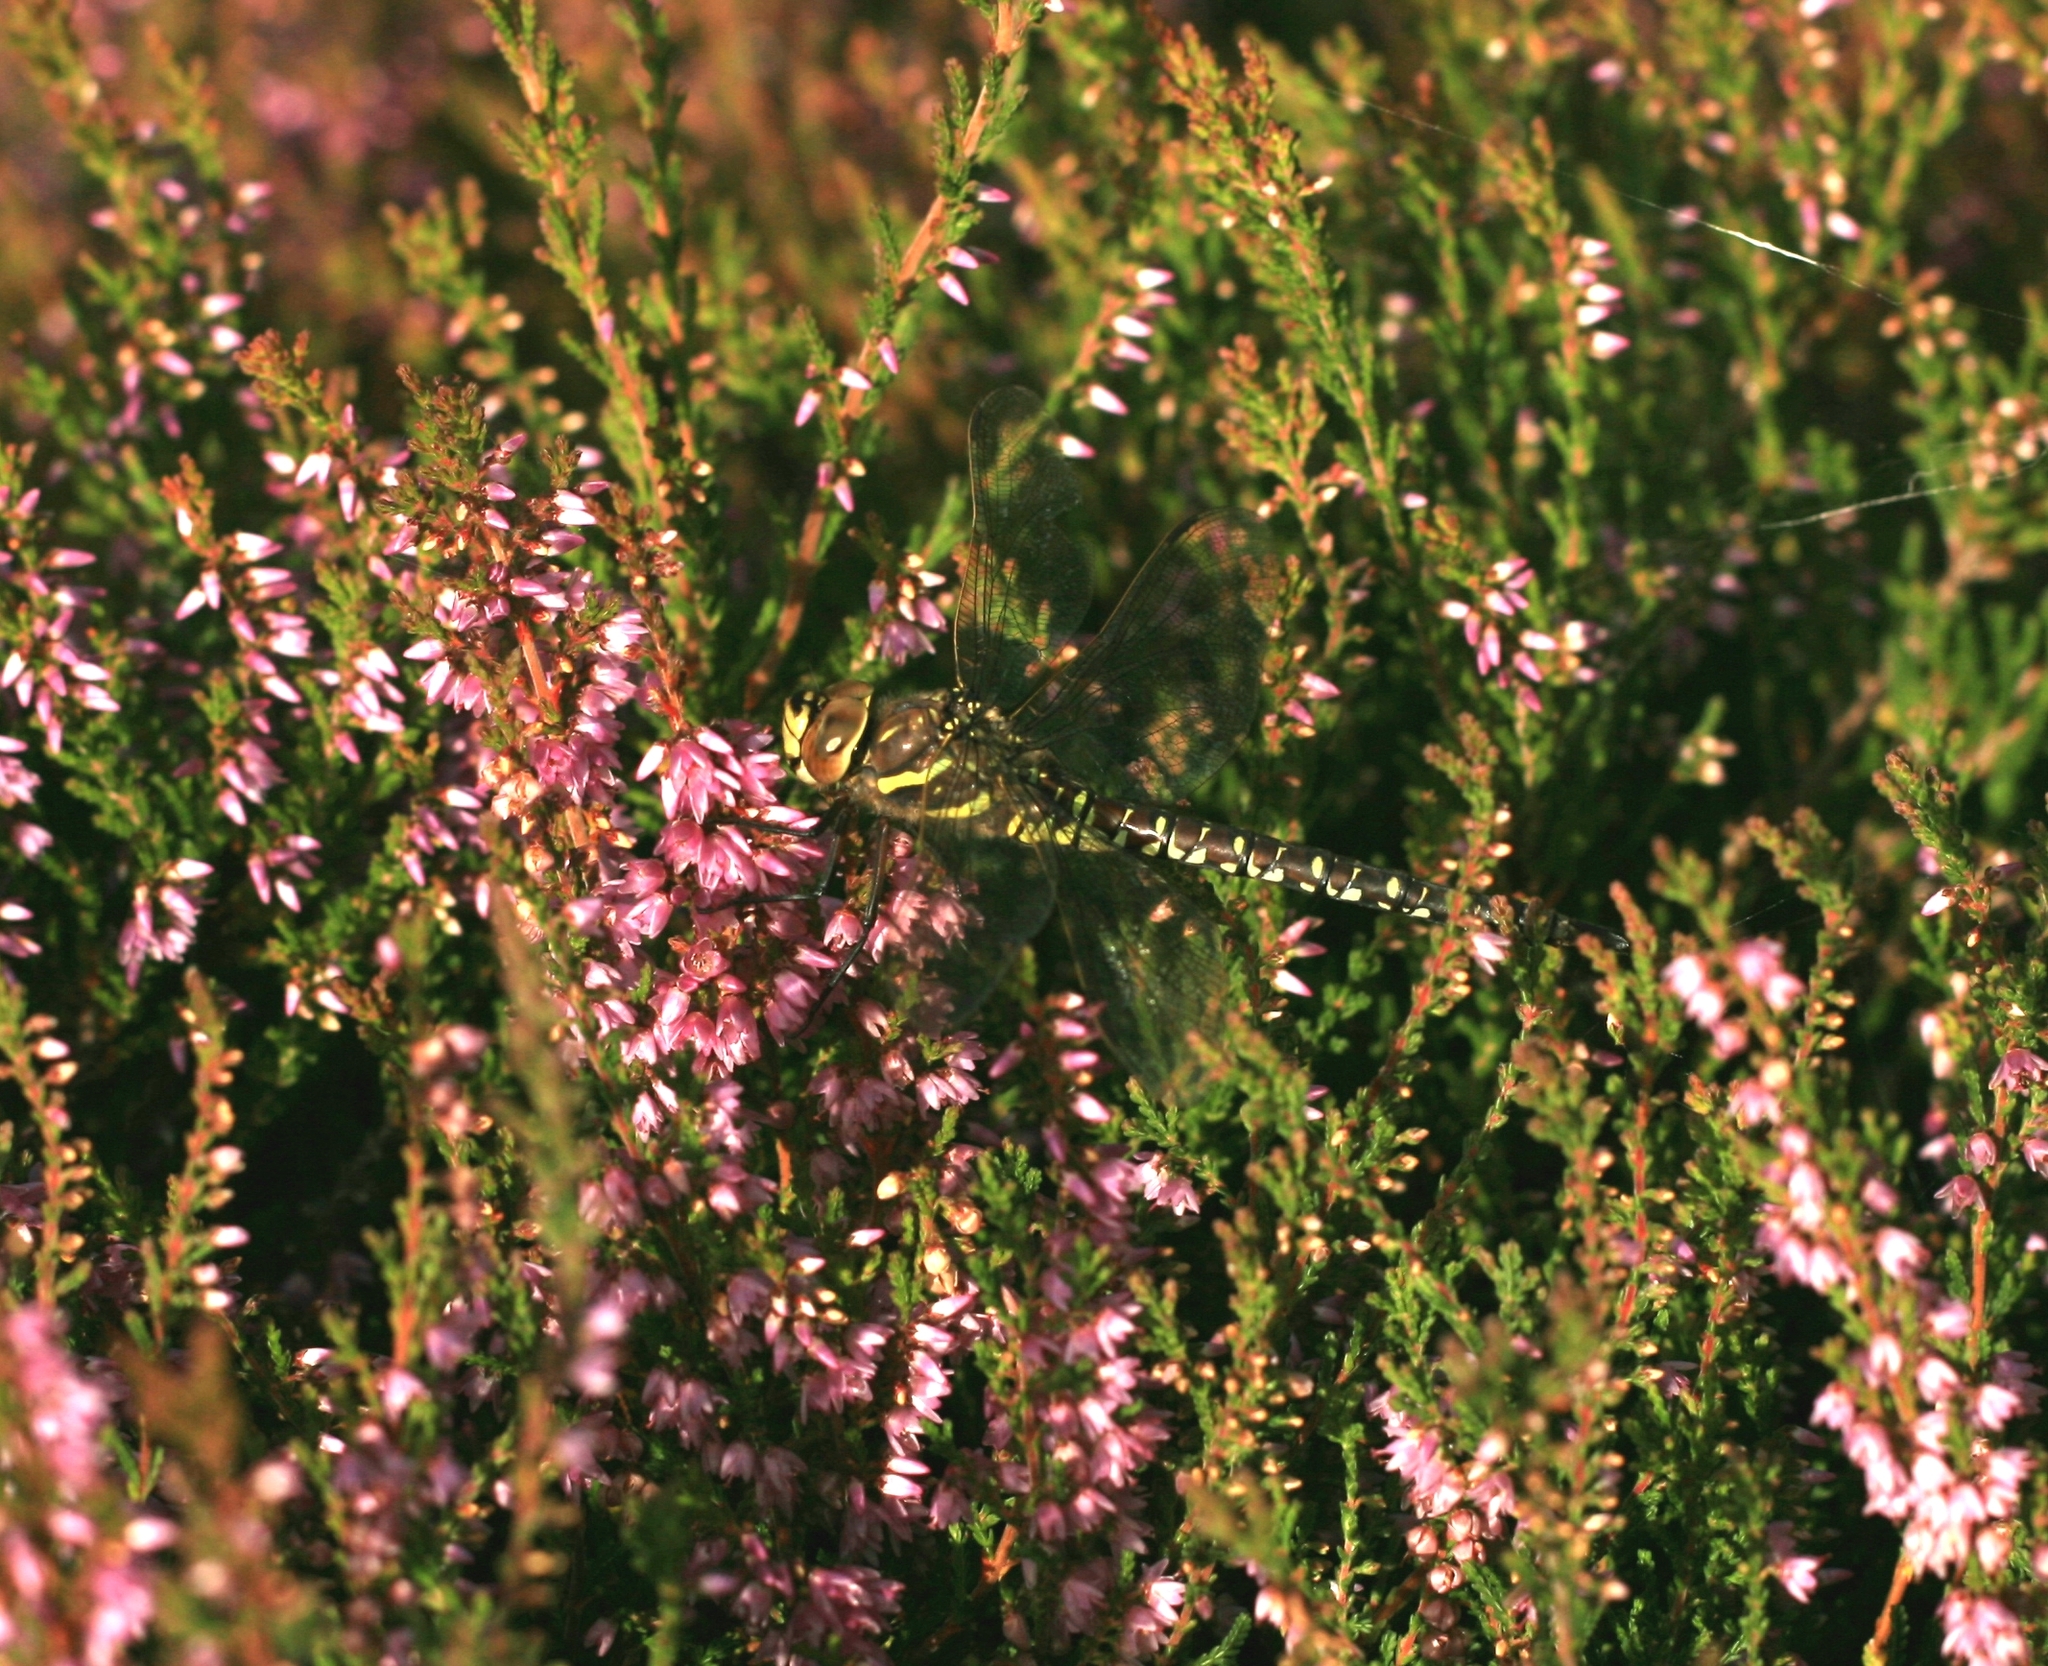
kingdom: Animalia
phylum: Arthropoda
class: Insecta
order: Odonata
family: Aeshnidae
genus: Aeshna
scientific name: Aeshna juncea
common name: Moorland hawker
